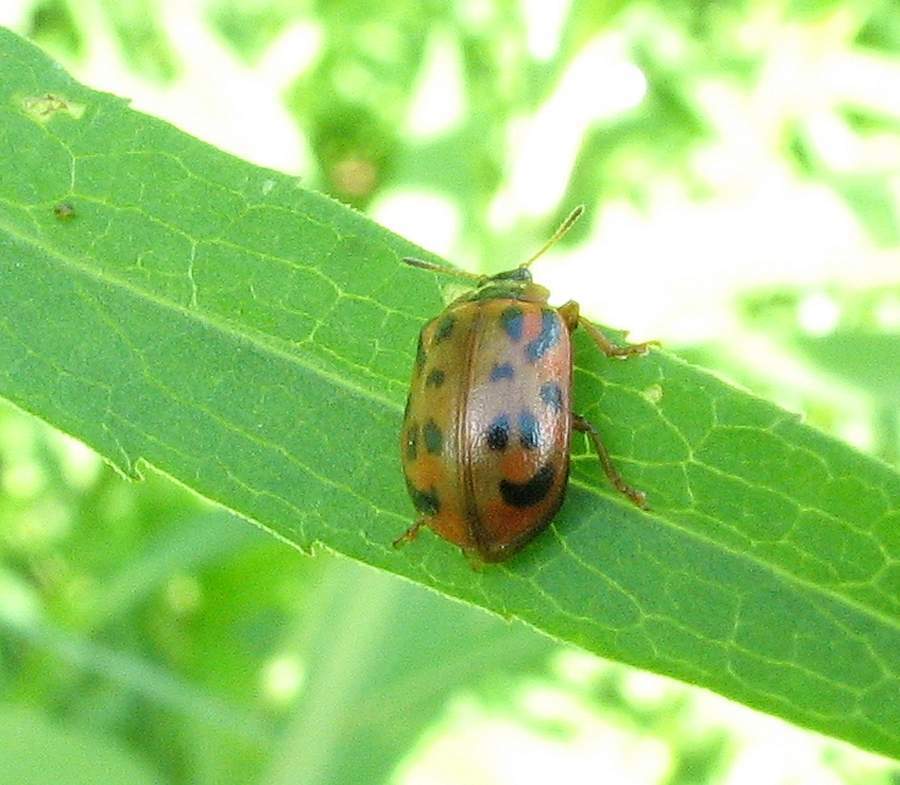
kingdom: Animalia
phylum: Arthropoda
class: Insecta
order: Coleoptera
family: Chrysomelidae
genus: Chrysomela
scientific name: Chrysomela mainensis
